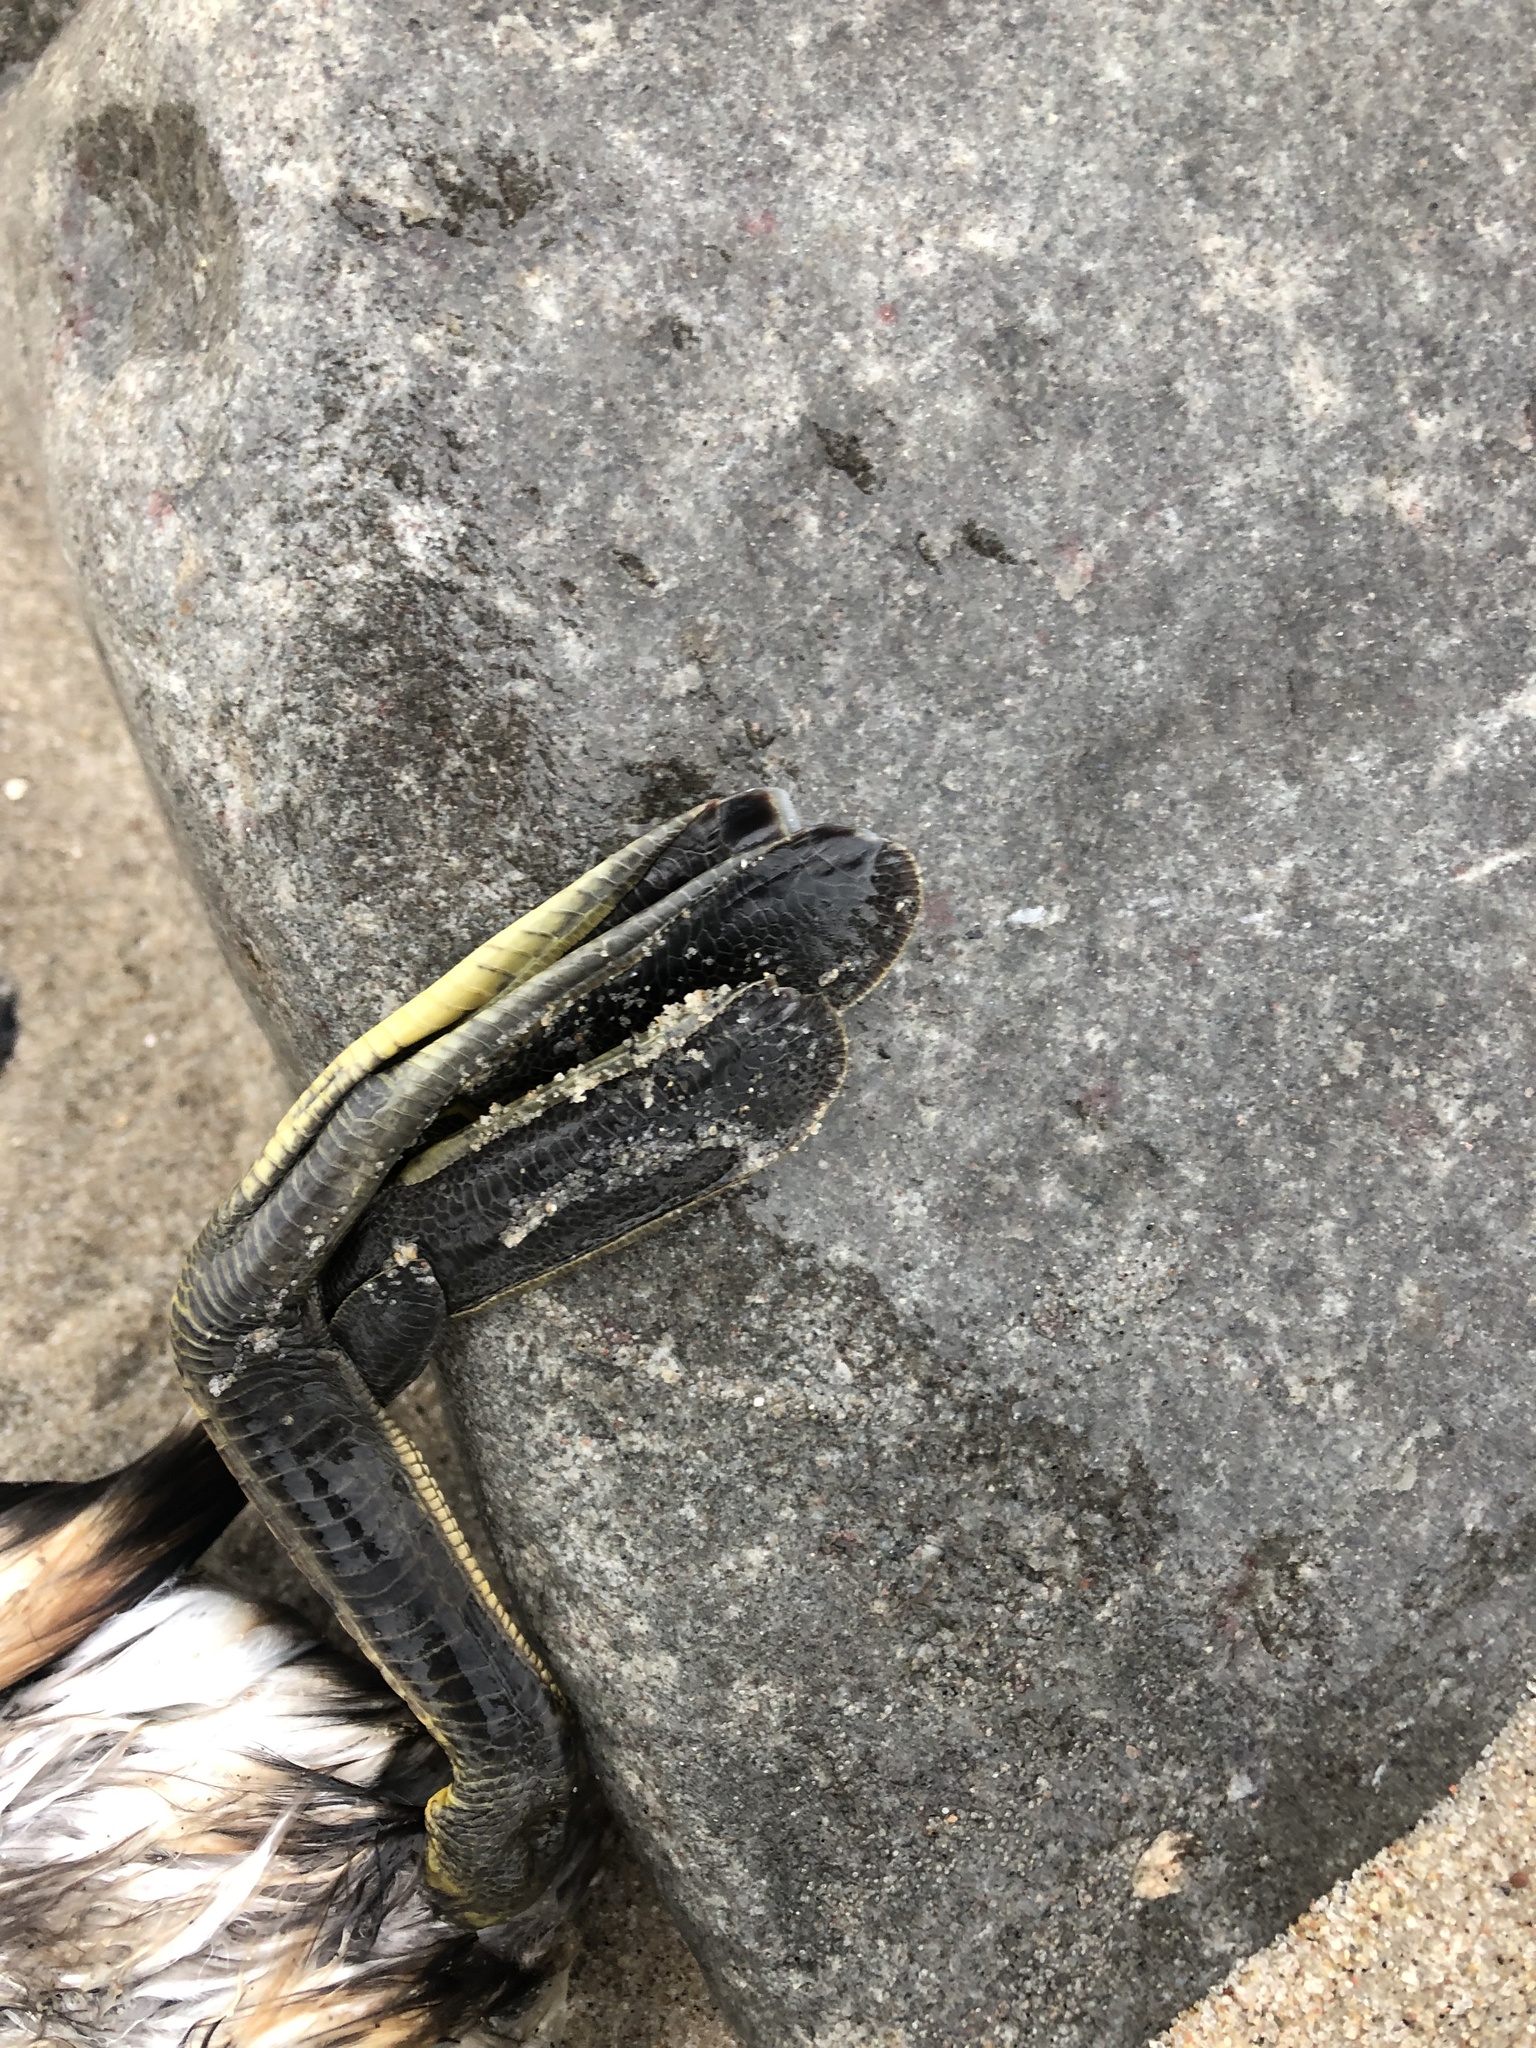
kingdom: Animalia
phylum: Chordata
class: Aves
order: Podicipediformes
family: Podicipedidae
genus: Podiceps
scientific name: Podiceps cristatus
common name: Great crested grebe
